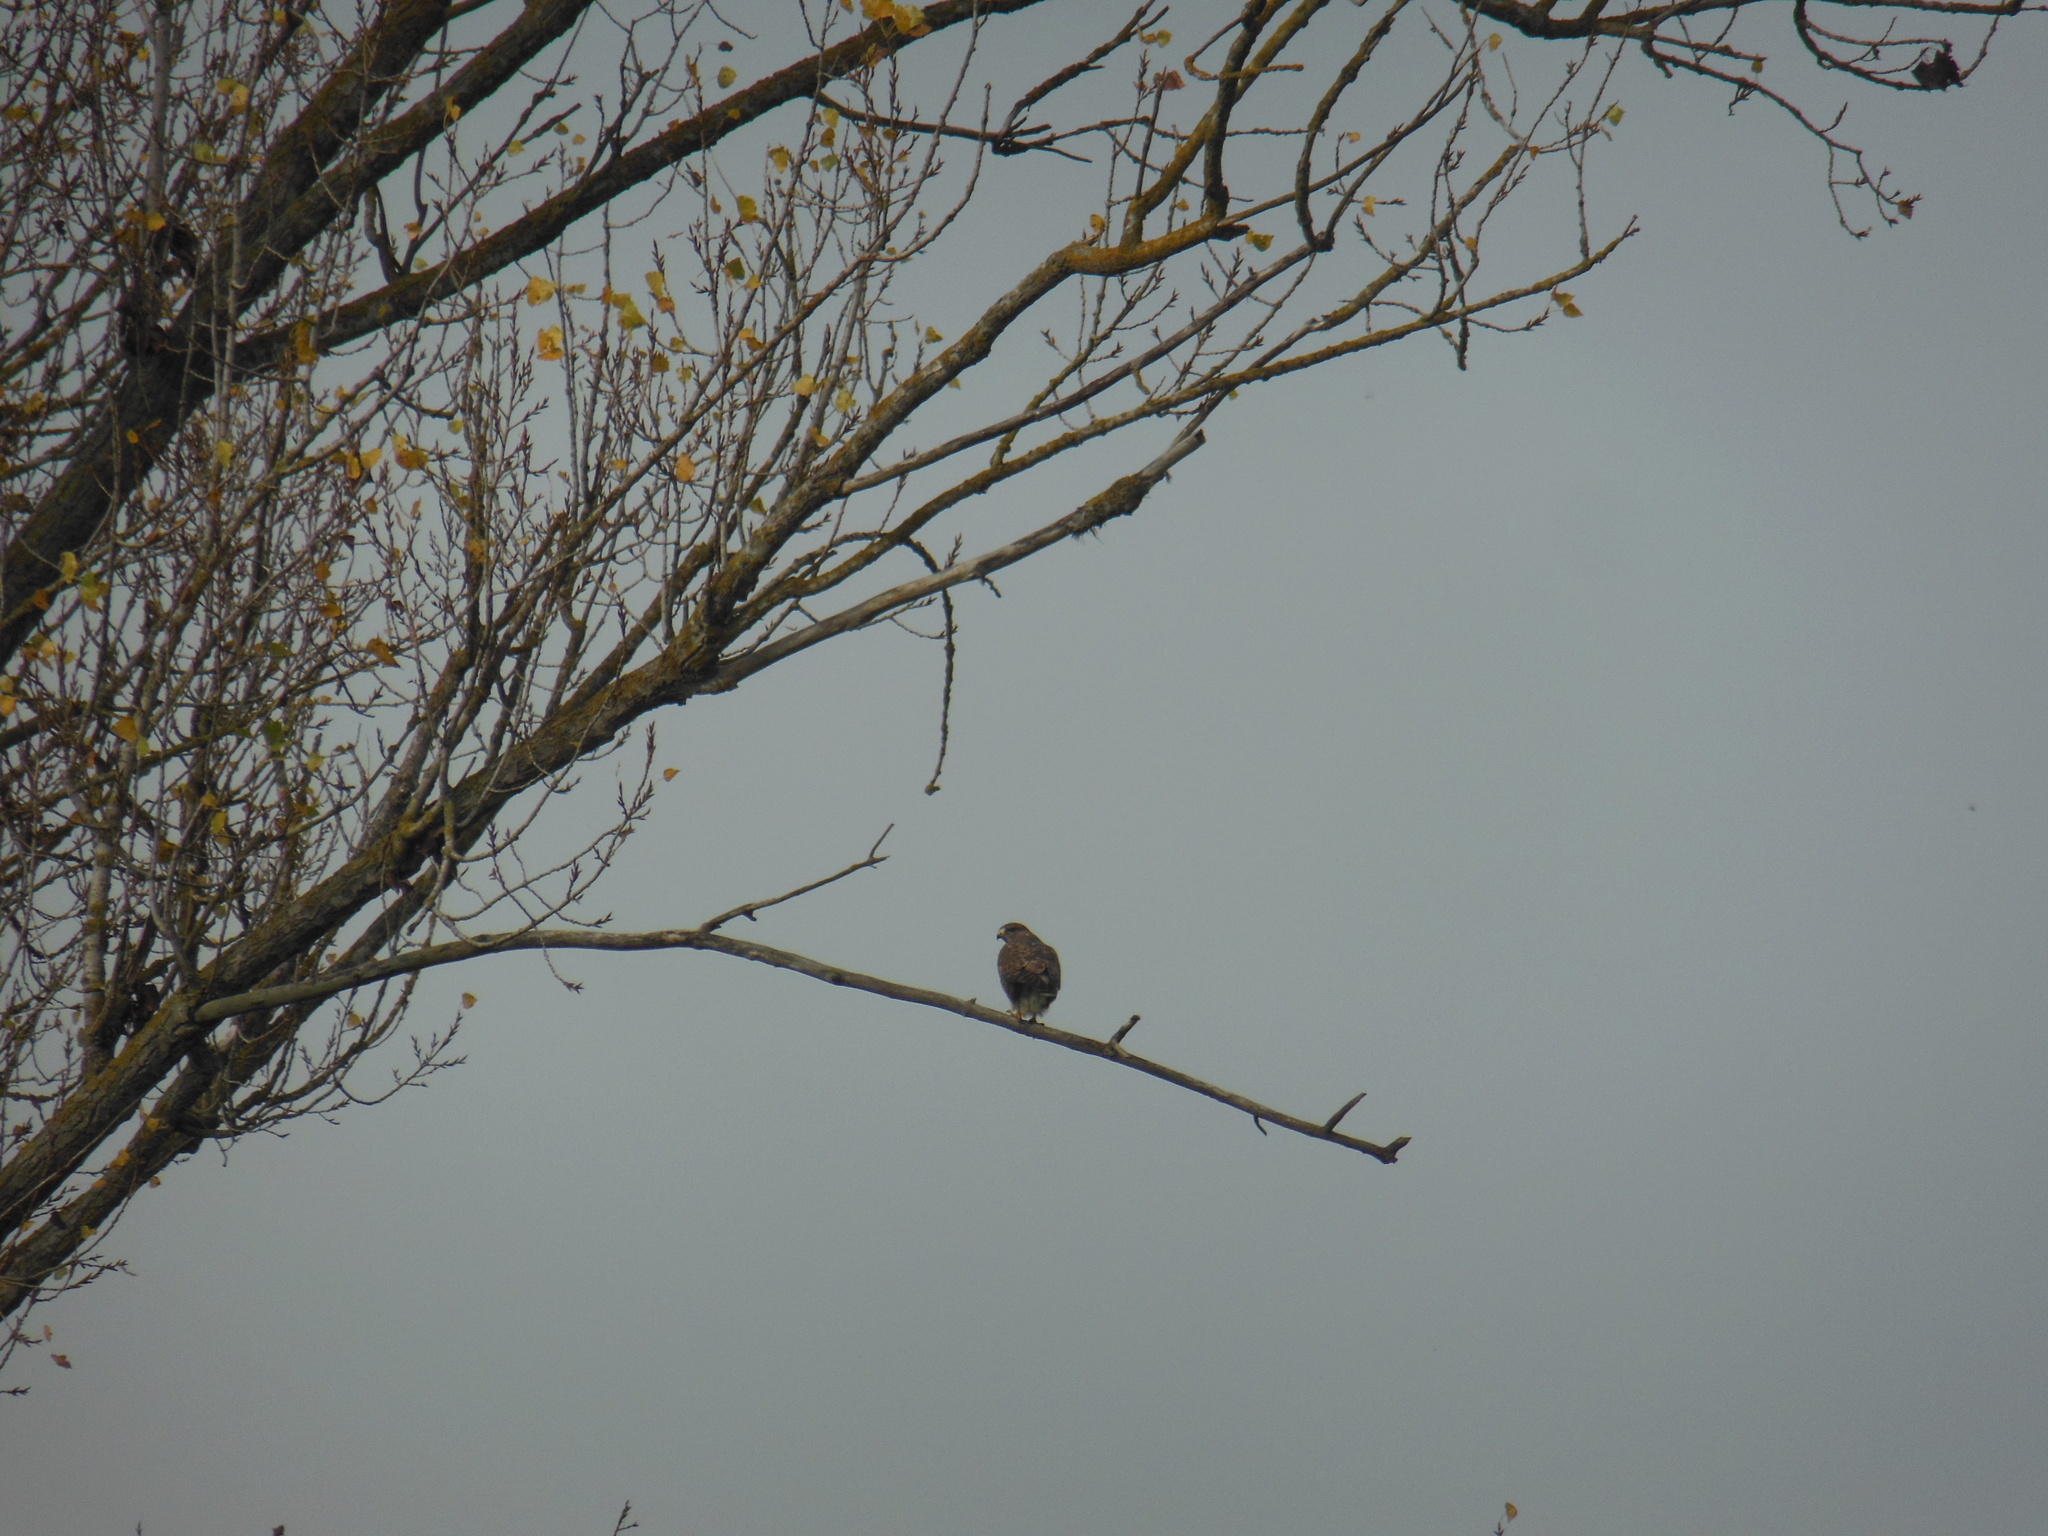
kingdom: Animalia
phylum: Chordata
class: Aves
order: Accipitriformes
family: Accipitridae
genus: Buteo
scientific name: Buteo buteo
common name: Common buzzard
